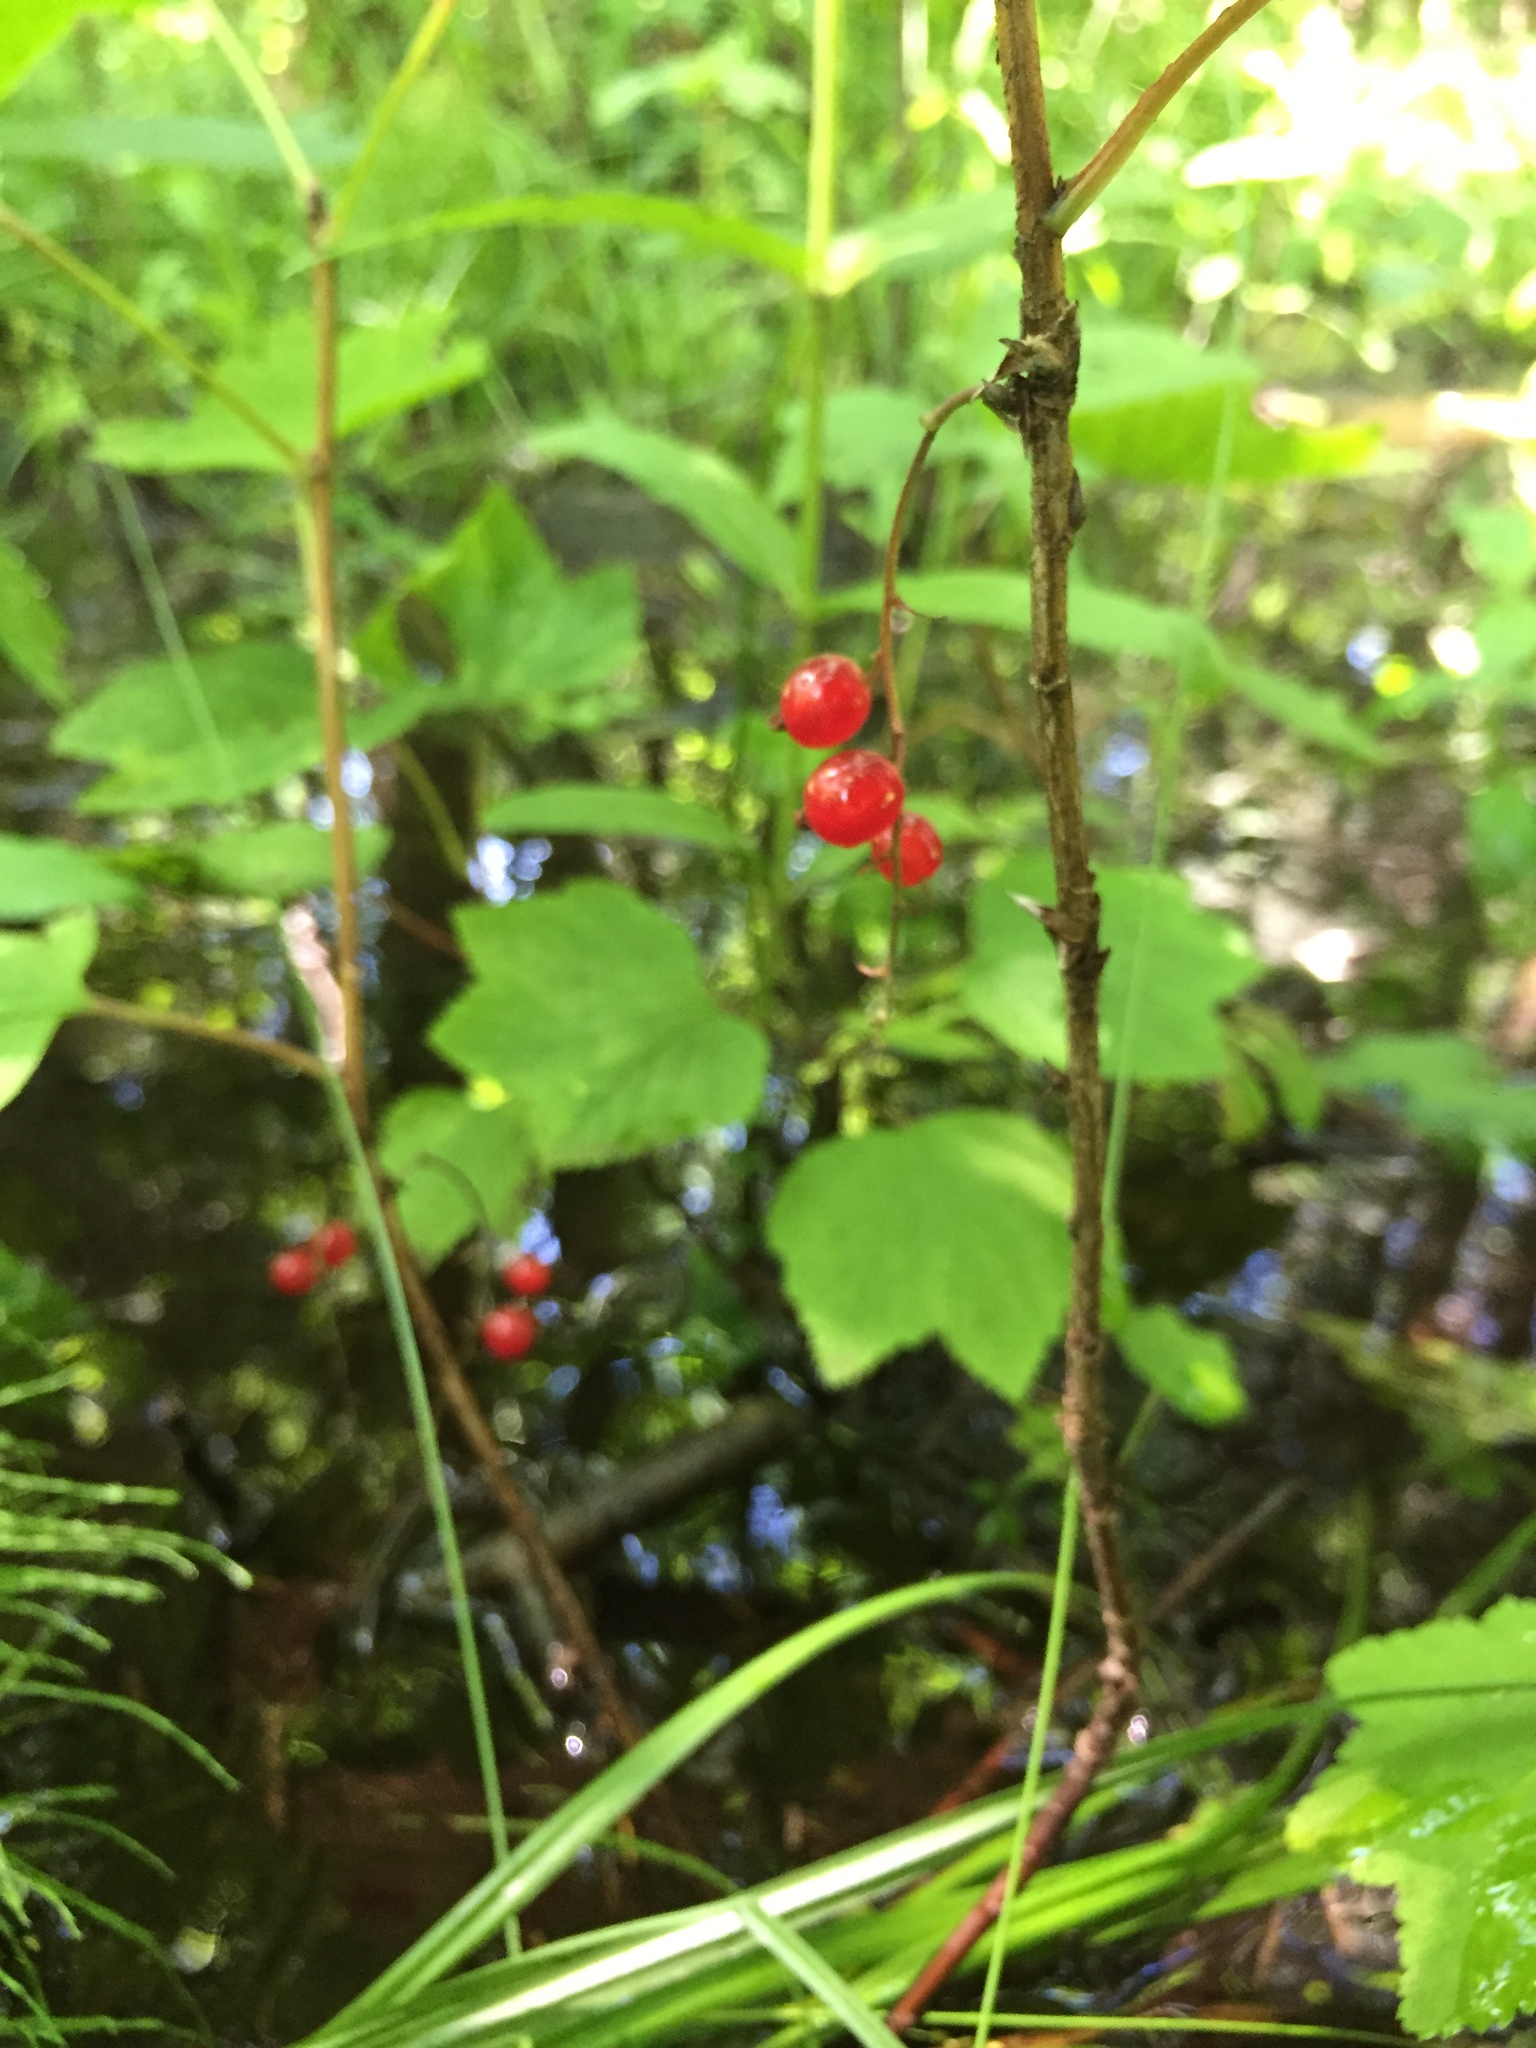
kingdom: Plantae
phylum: Tracheophyta
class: Magnoliopsida
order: Saxifragales
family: Grossulariaceae
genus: Ribes
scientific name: Ribes triste
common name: Swamp red currant
